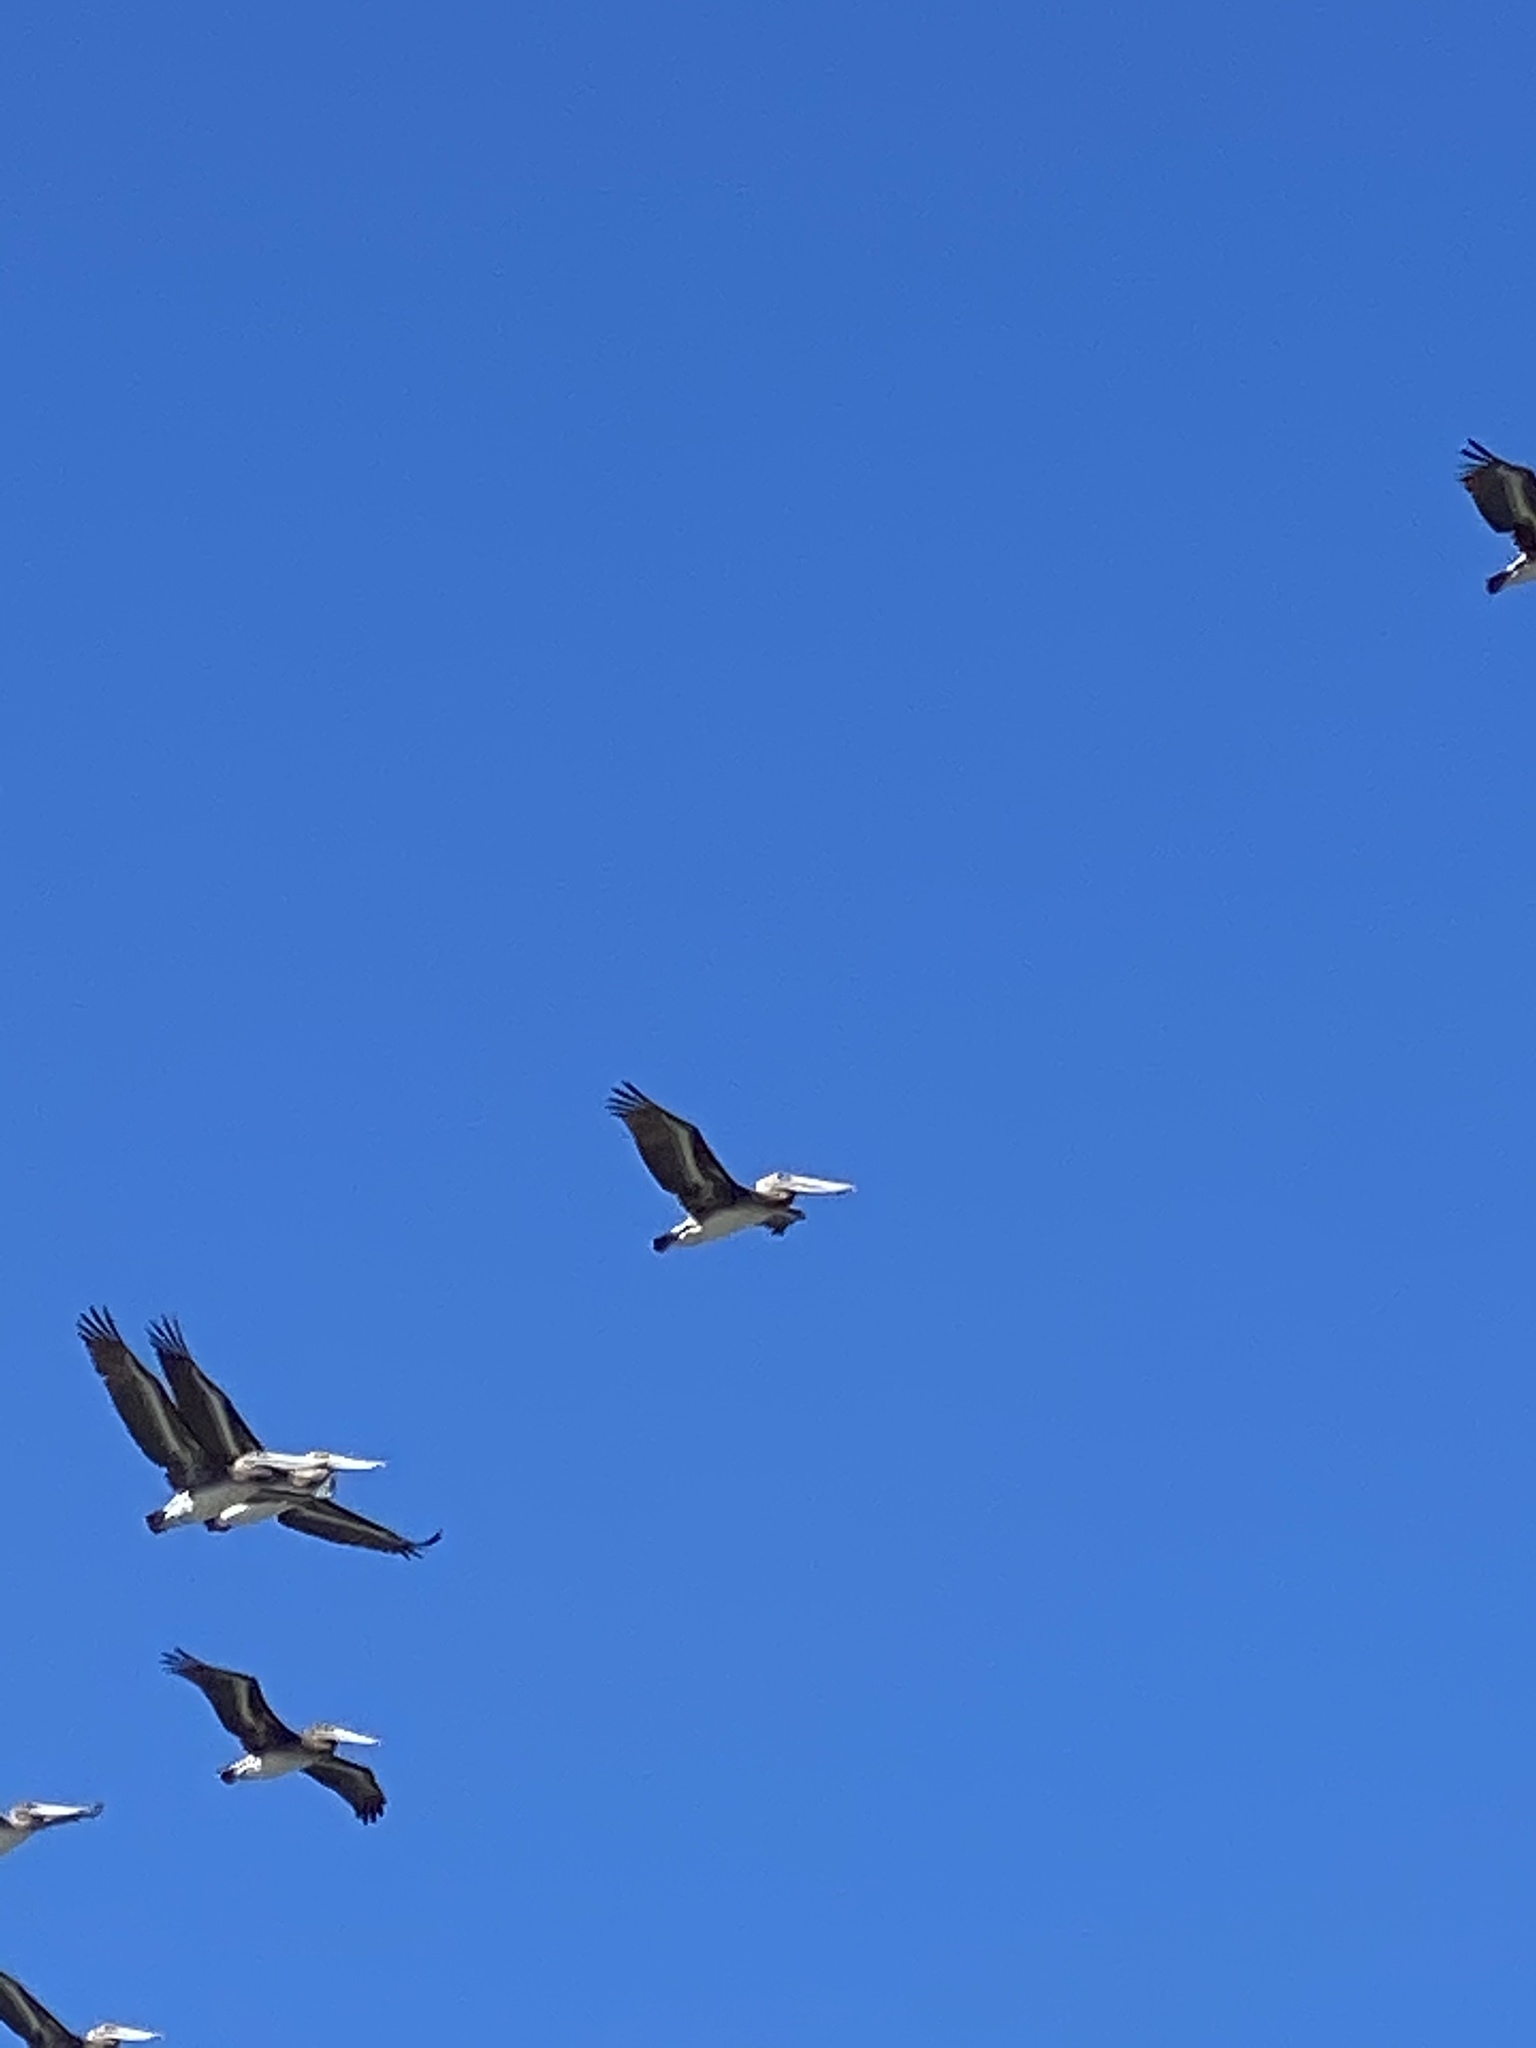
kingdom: Animalia
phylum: Chordata
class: Aves
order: Pelecaniformes
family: Pelecanidae
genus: Pelecanus
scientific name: Pelecanus occidentalis
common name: Brown pelican
